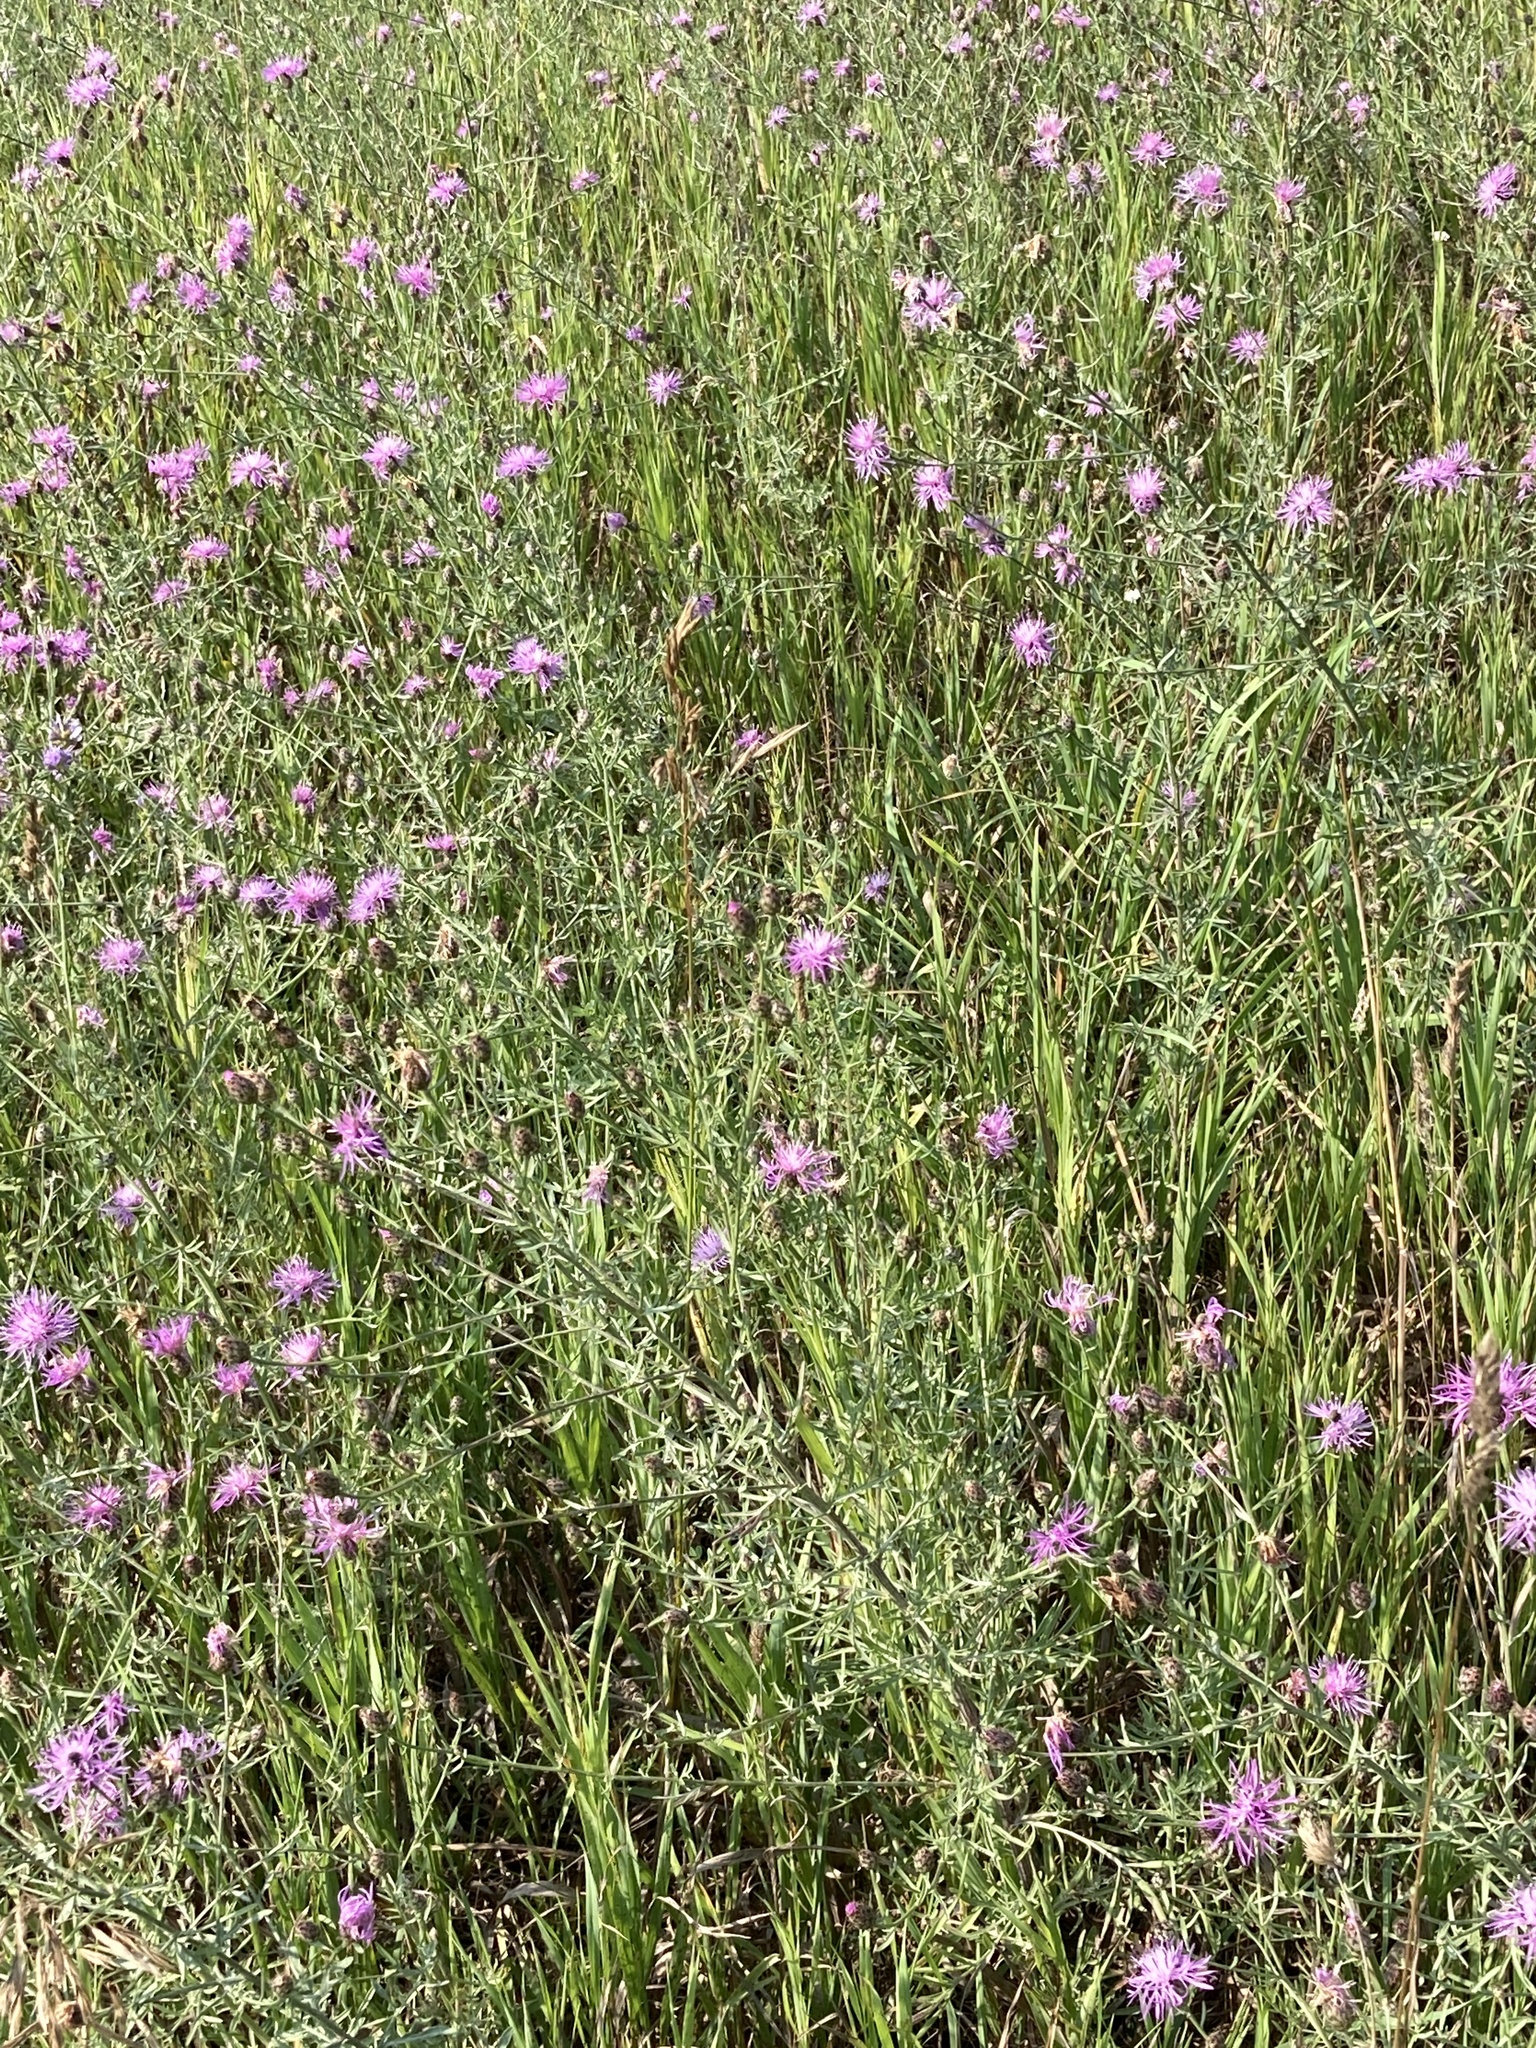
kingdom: Plantae
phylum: Tracheophyta
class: Magnoliopsida
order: Asterales
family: Asteraceae
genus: Centaurea
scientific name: Centaurea stoebe
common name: Spotted knapweed
